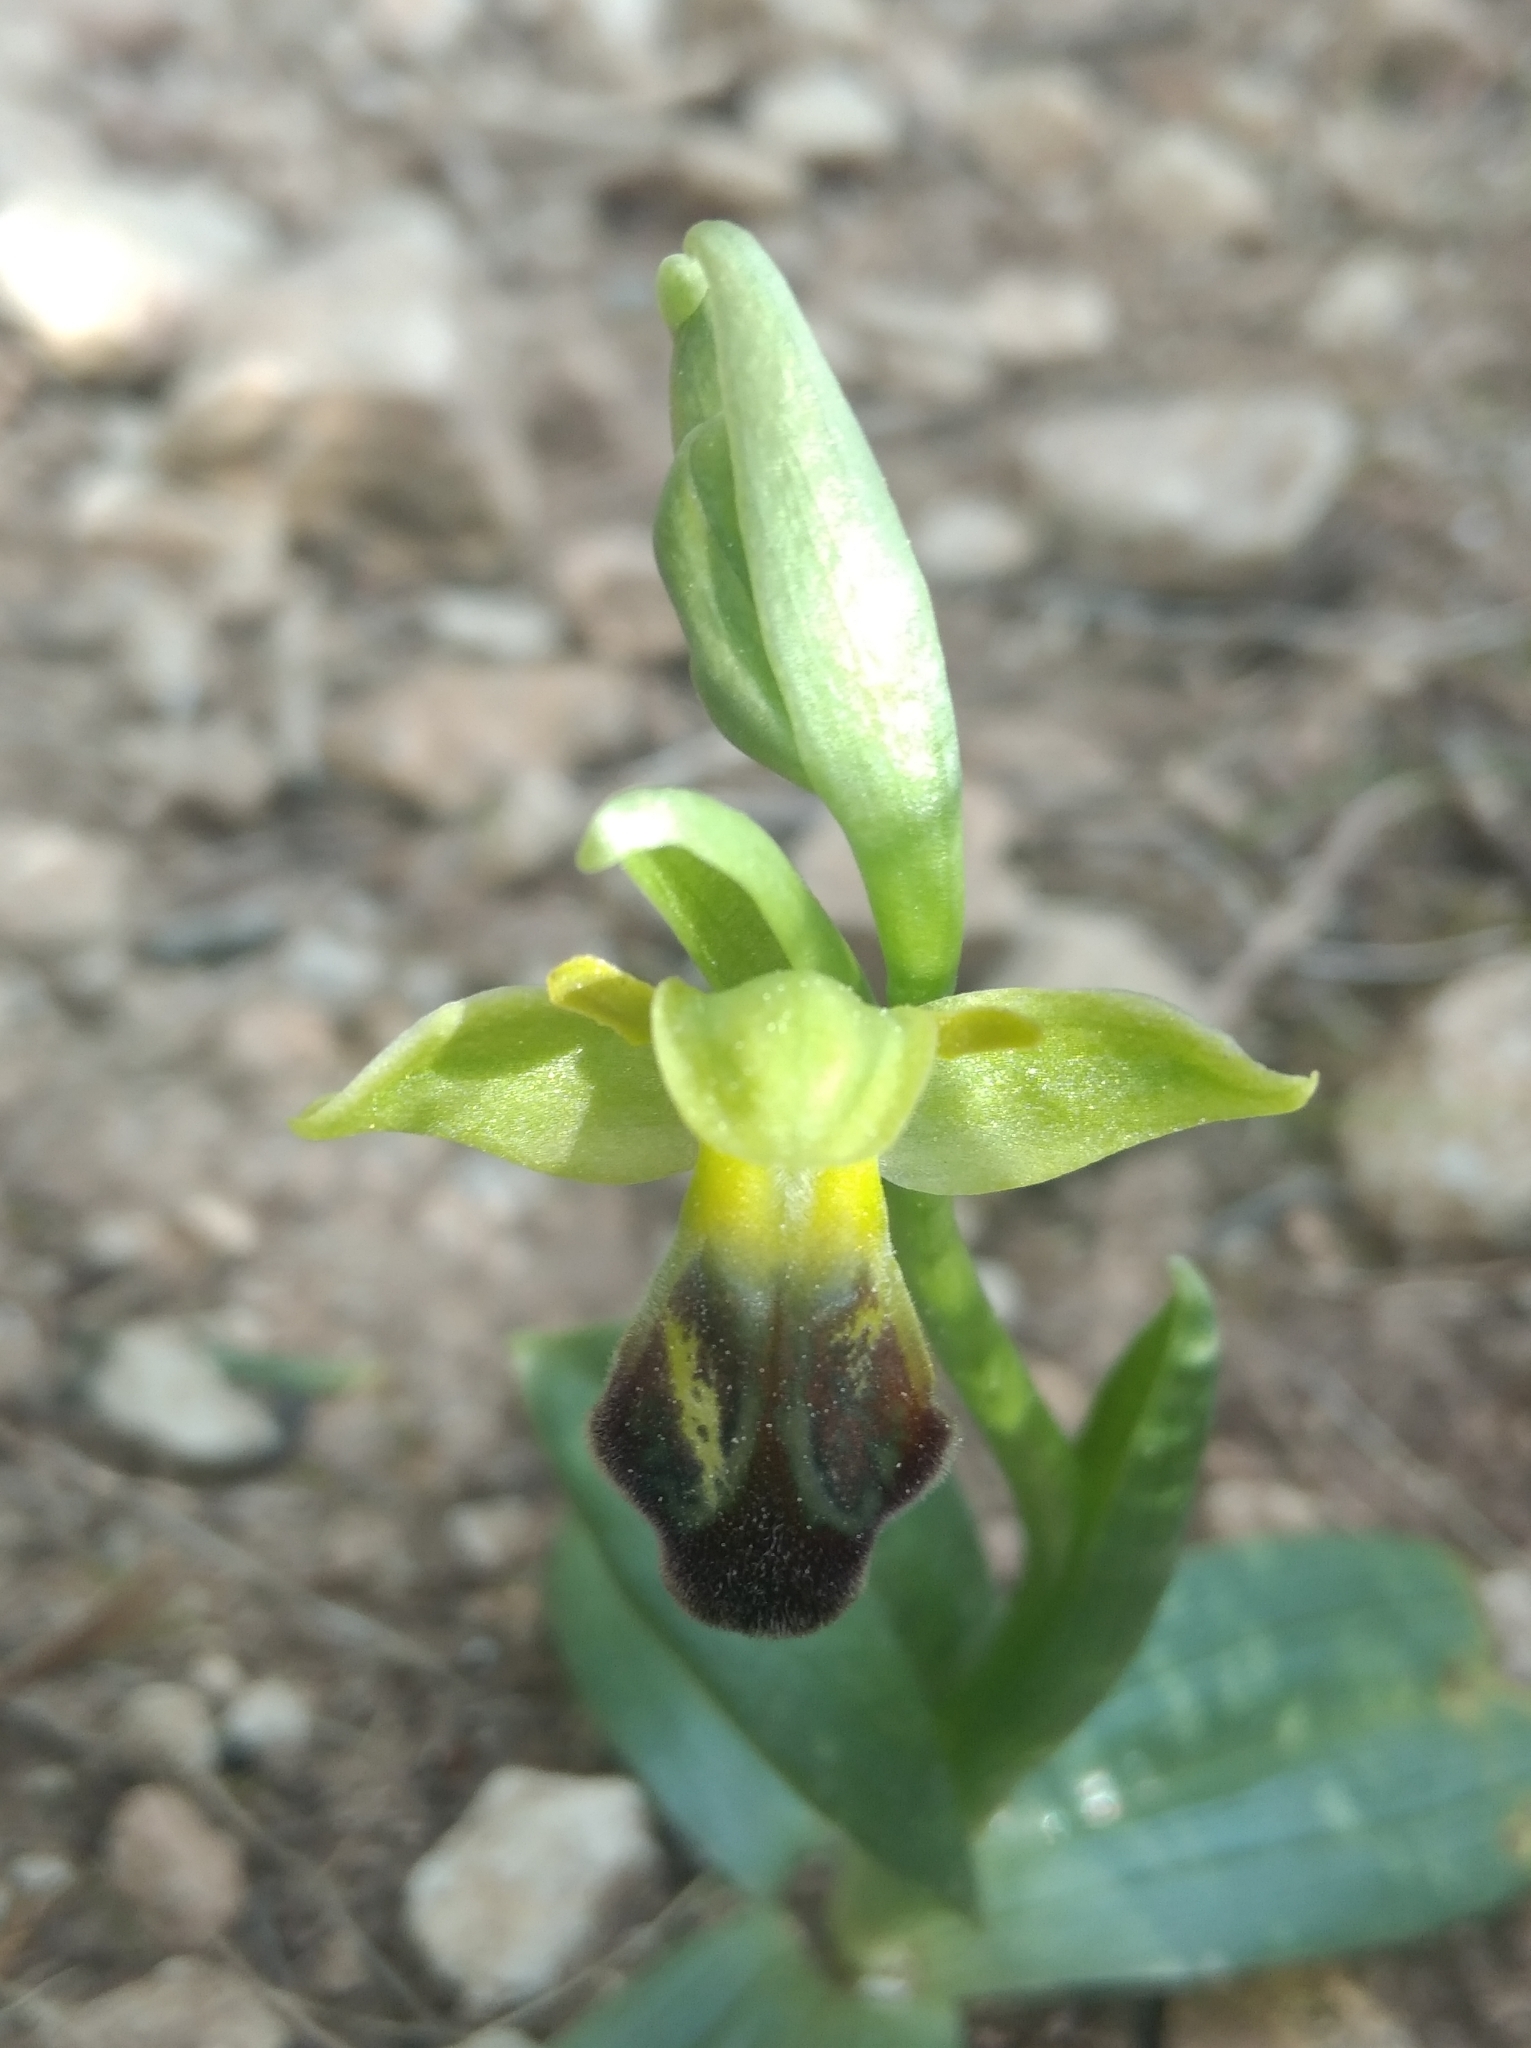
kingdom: Plantae
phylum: Tracheophyta
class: Liliopsida
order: Asparagales
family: Orchidaceae
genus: Ophrys
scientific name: Ophrys fusca
